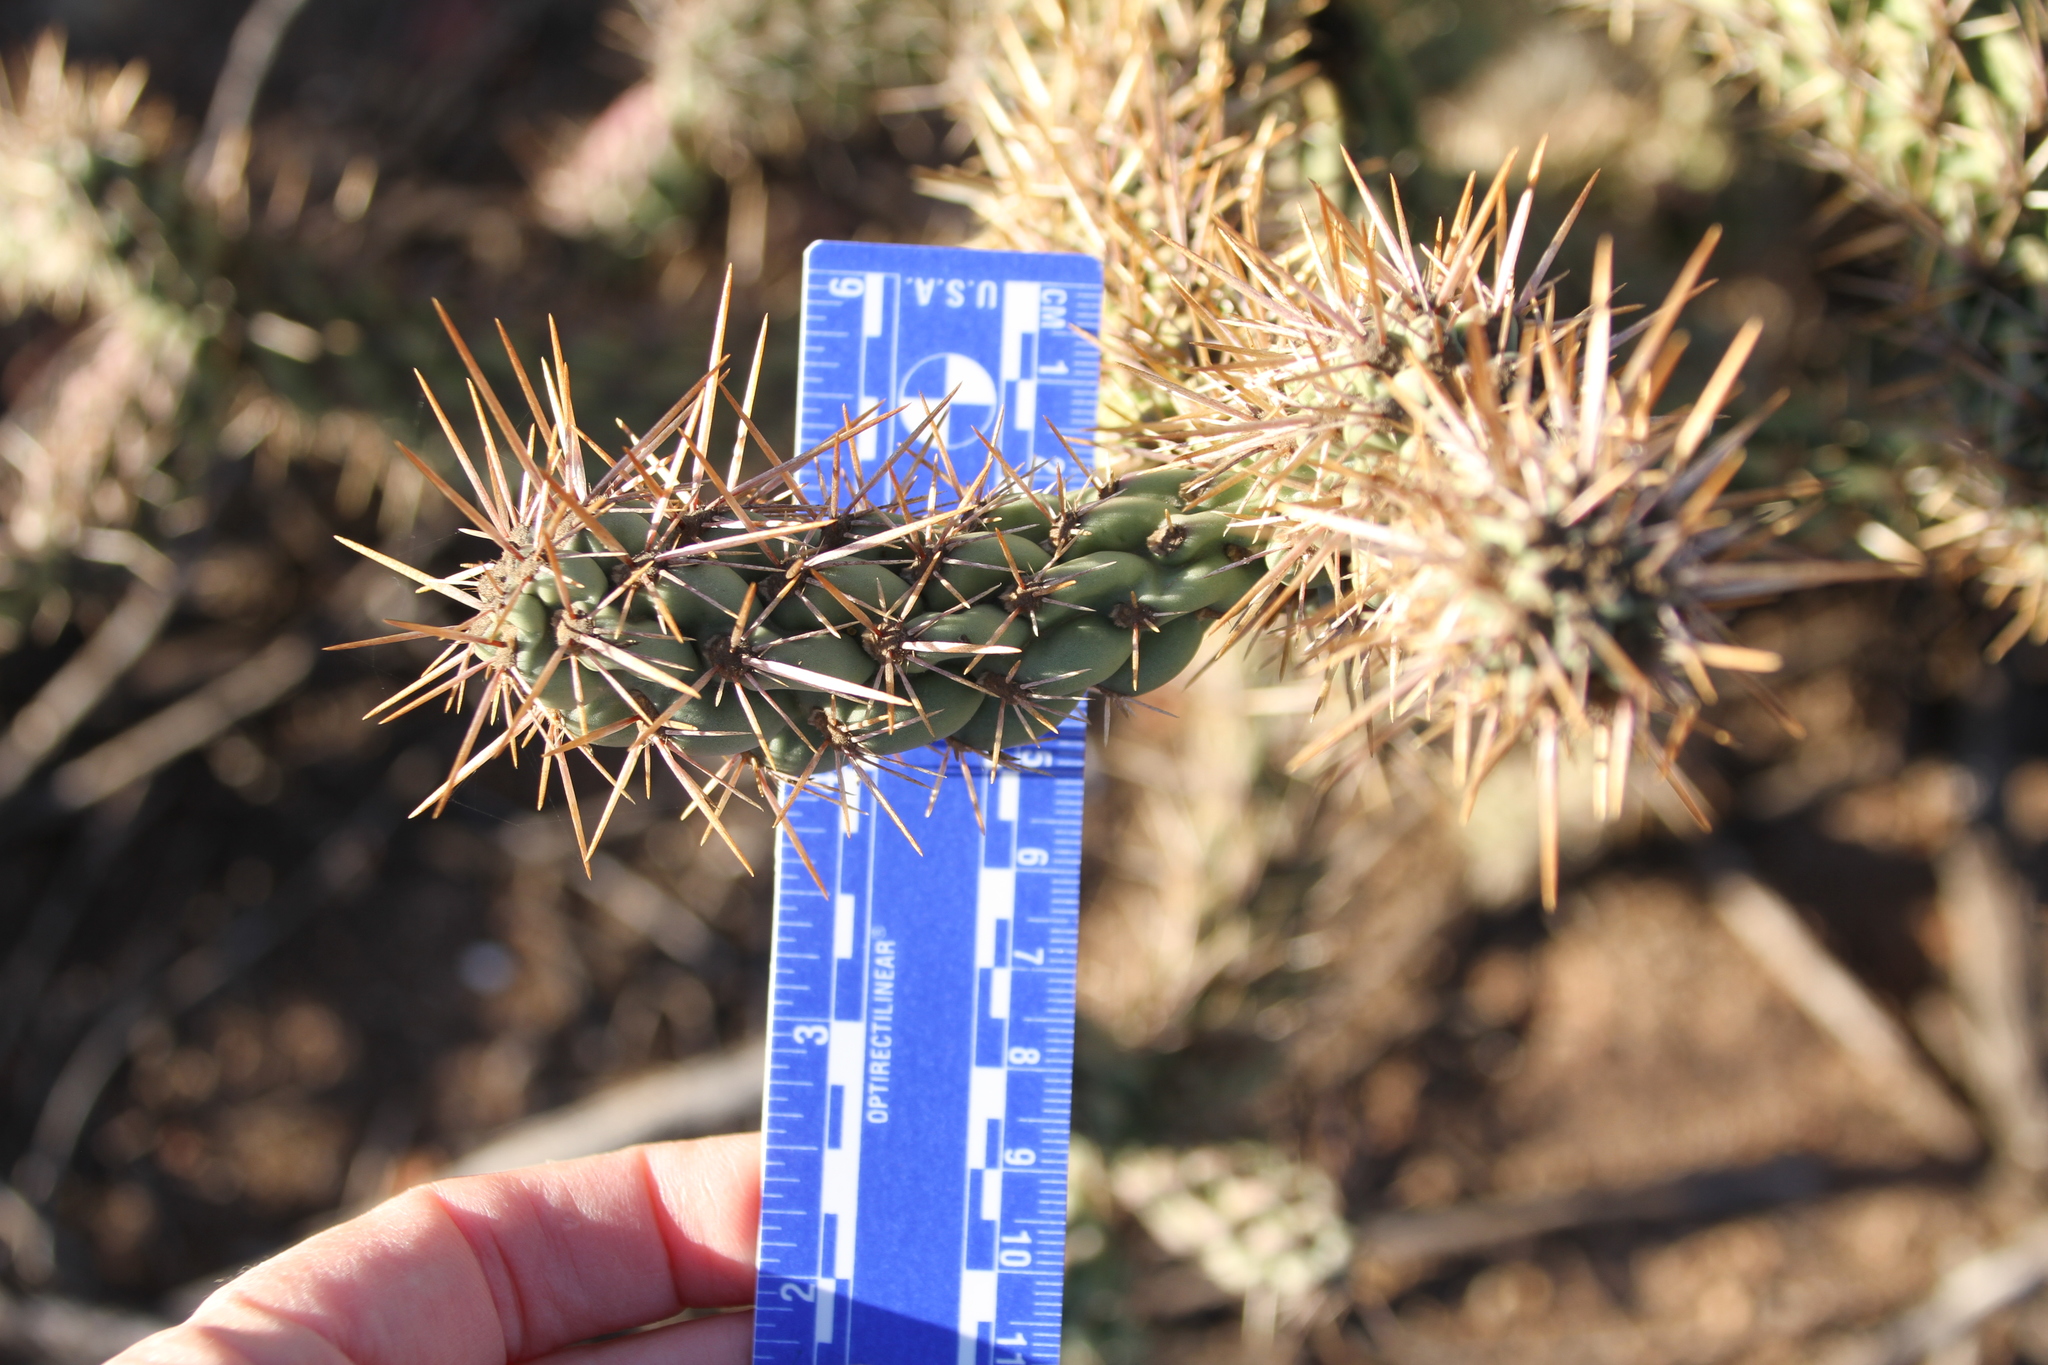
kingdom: Plantae
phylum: Tracheophyta
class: Magnoliopsida
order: Caryophyllales
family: Cactaceae
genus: Cylindropuntia
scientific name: Cylindropuntia prolifera
